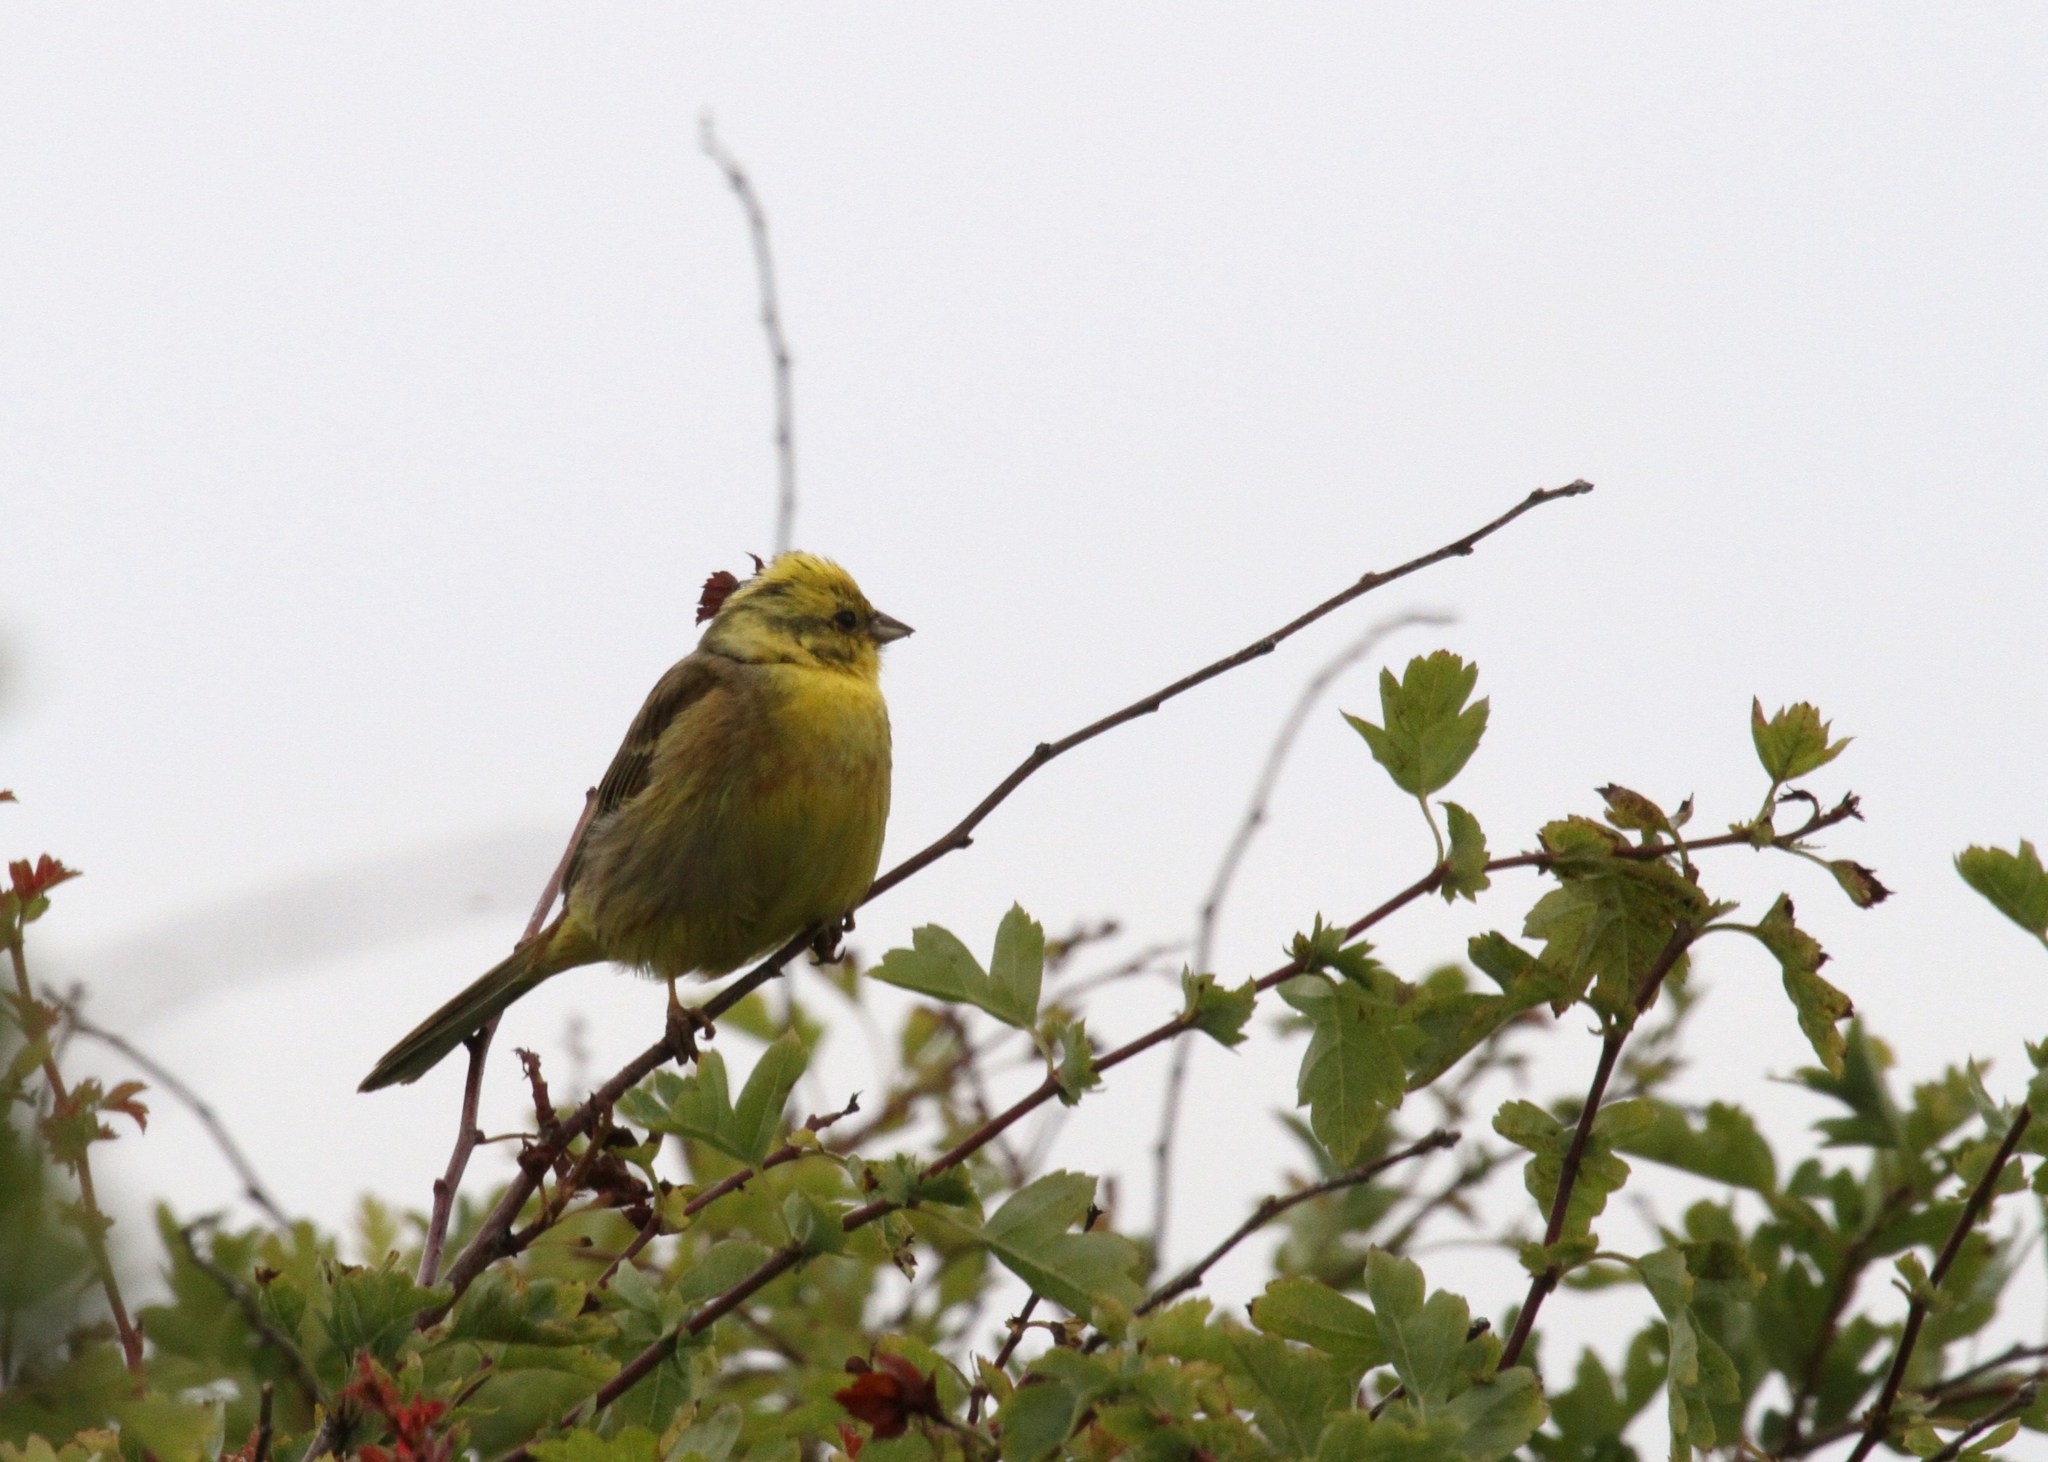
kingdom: Animalia
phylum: Chordata
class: Aves
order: Passeriformes
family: Emberizidae
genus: Emberiza
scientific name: Emberiza citrinella
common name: Yellowhammer
